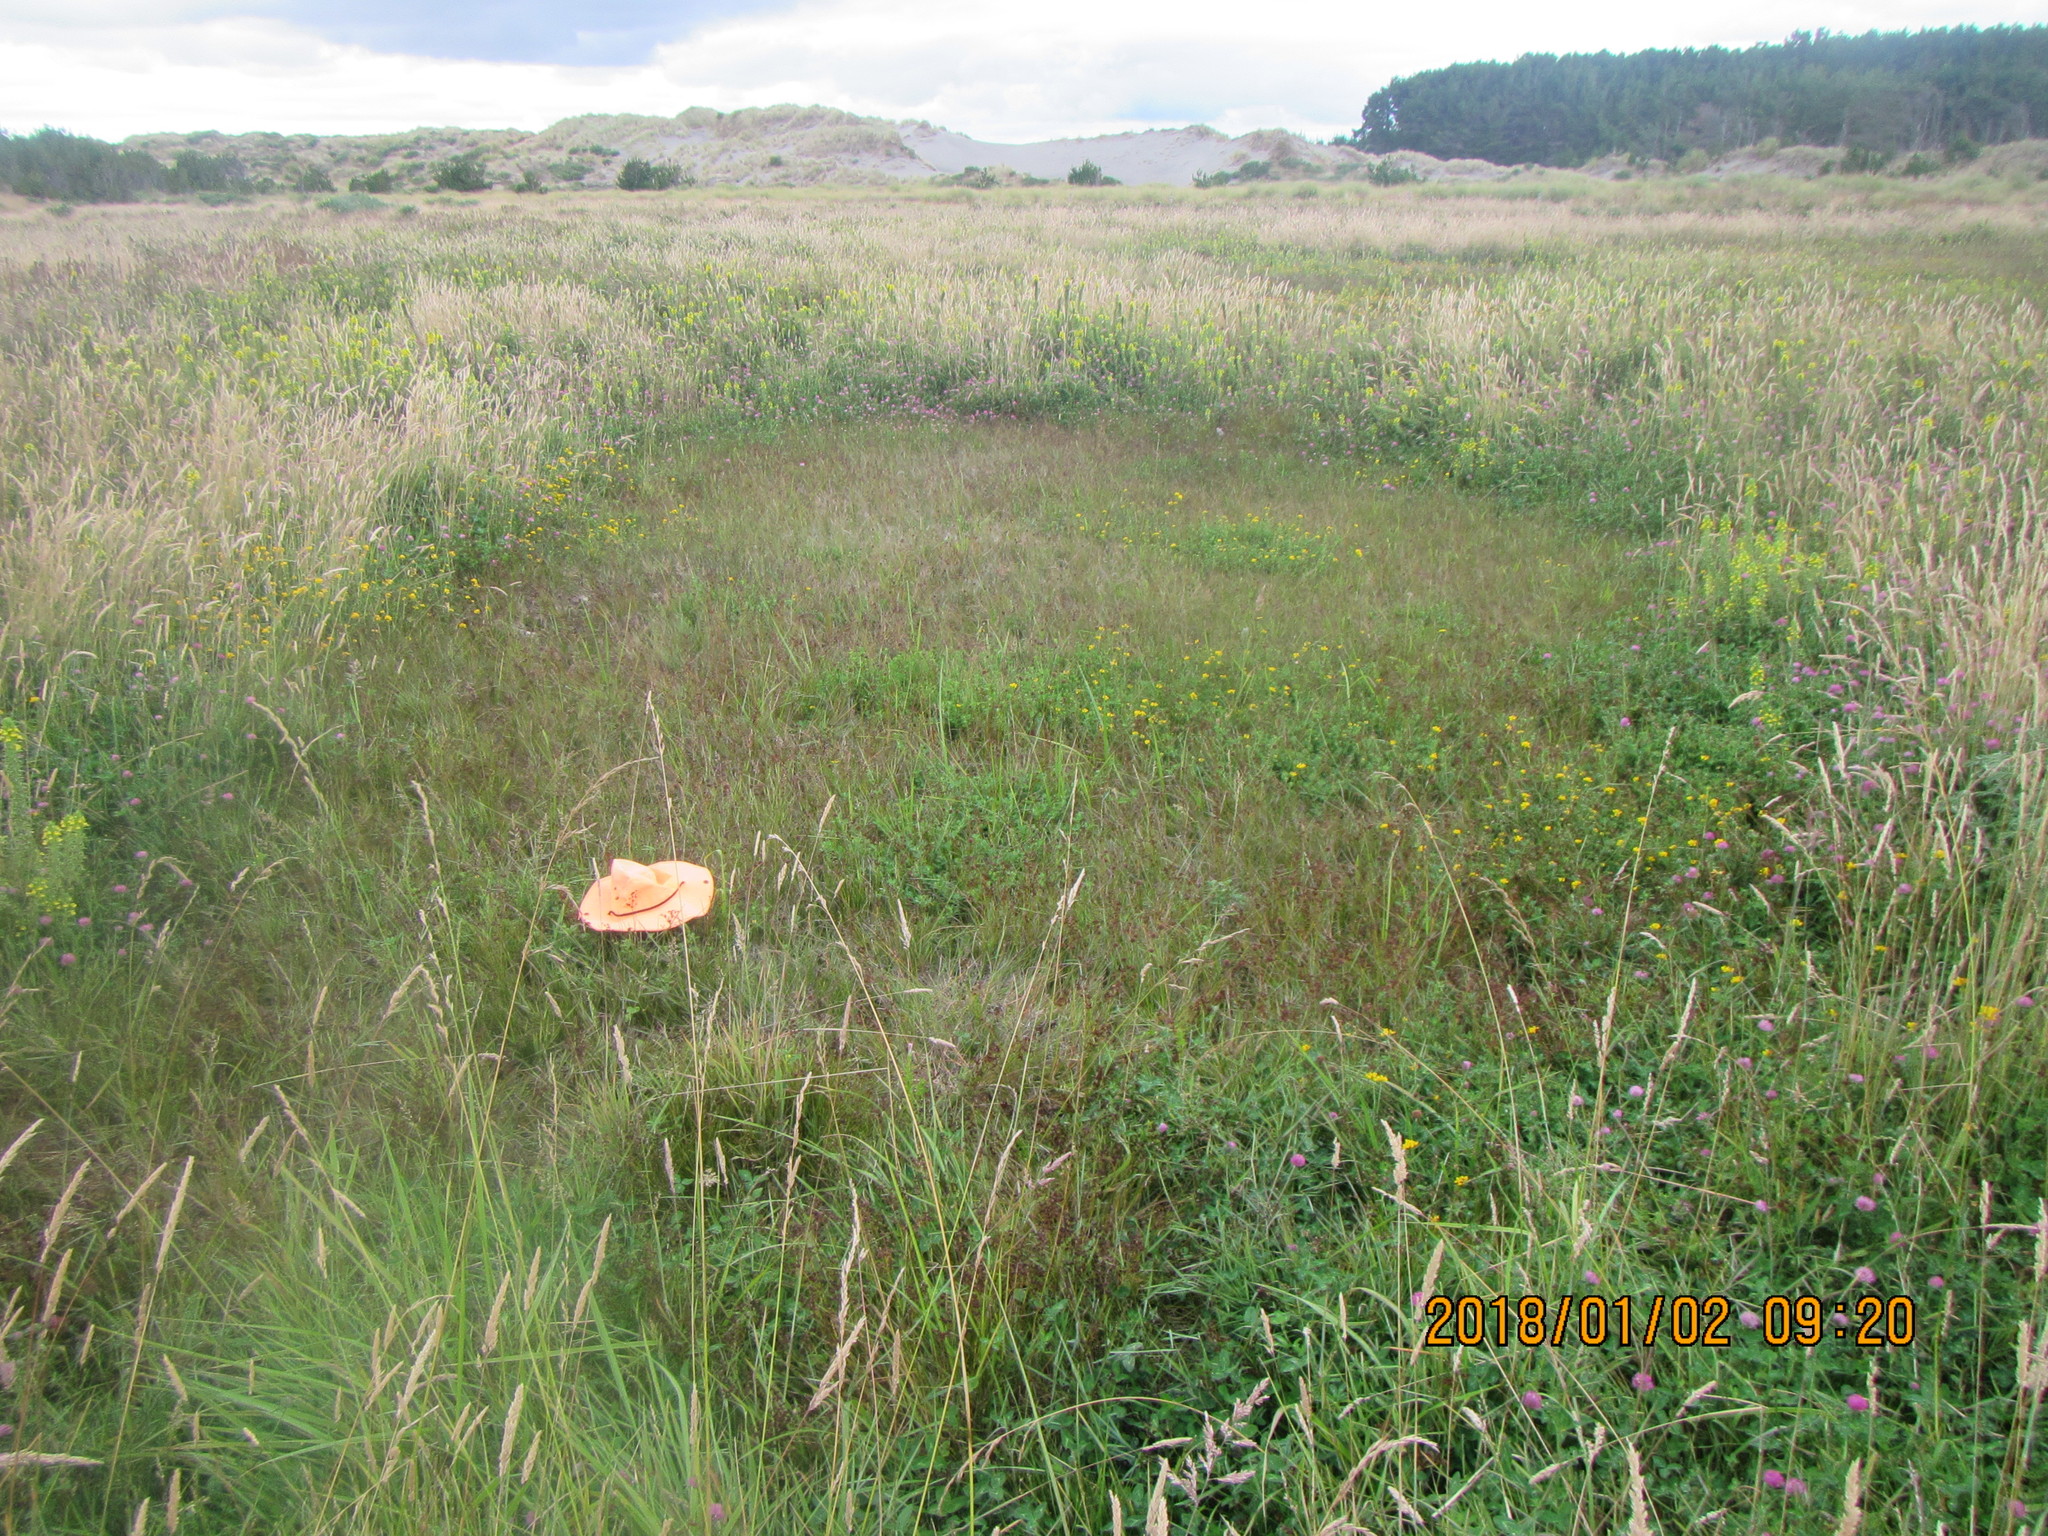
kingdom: Plantae
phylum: Tracheophyta
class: Liliopsida
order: Poales
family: Juncaceae
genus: Juncus
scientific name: Juncus bulbosus
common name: Bulbous rush
